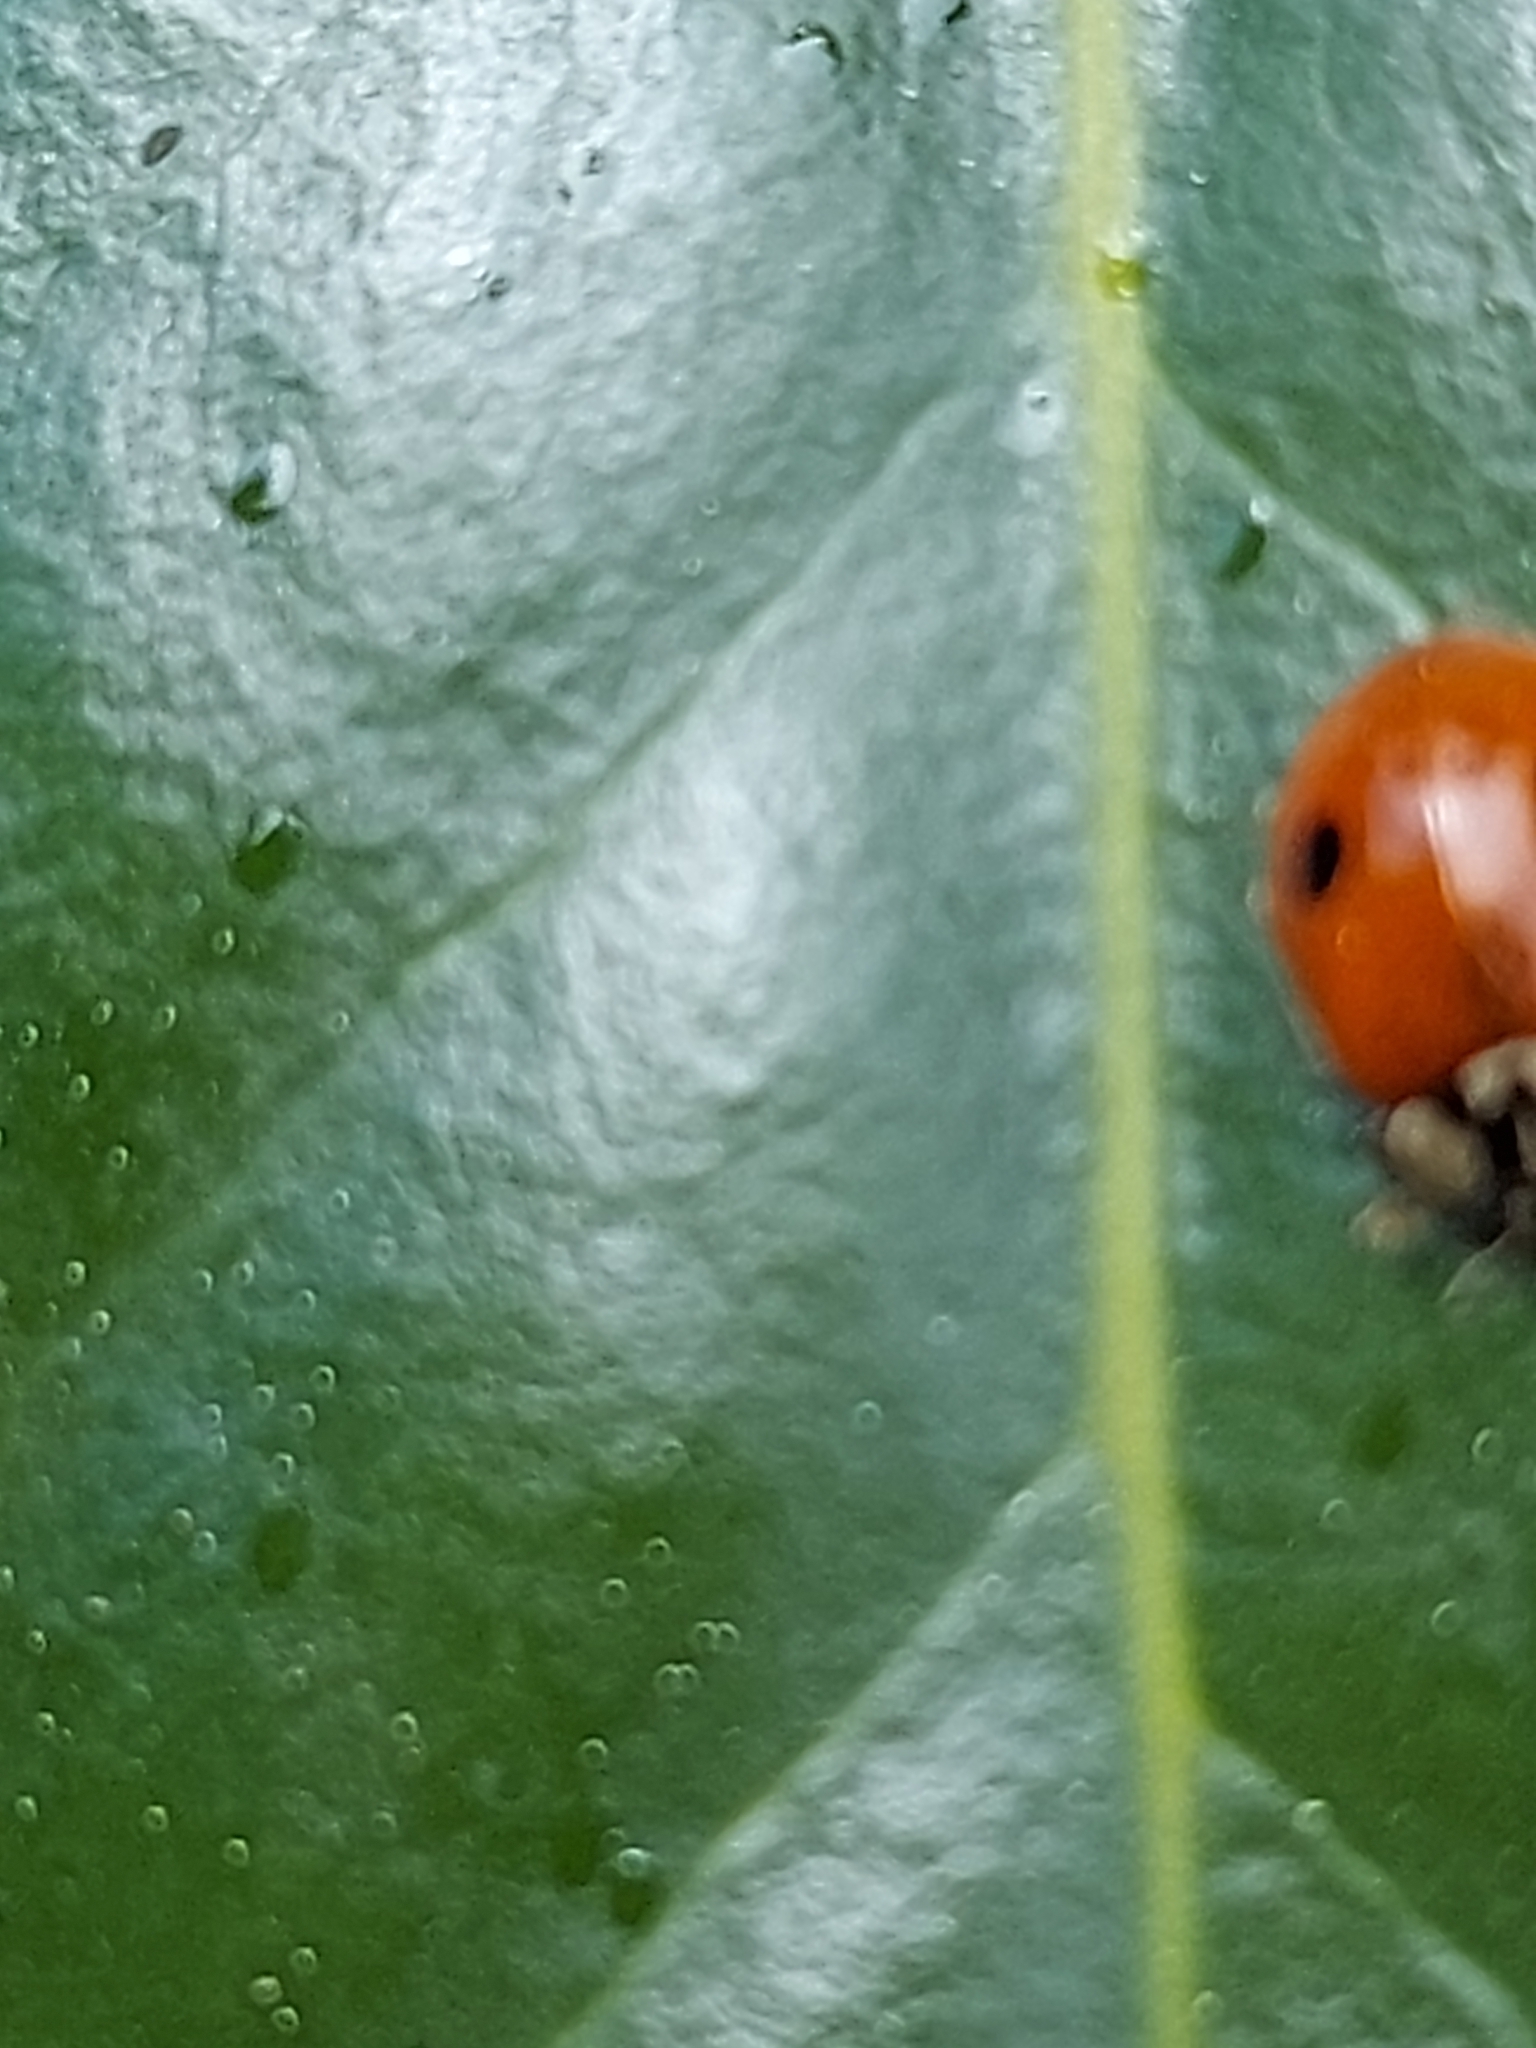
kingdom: Animalia
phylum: Arthropoda
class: Insecta
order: Coleoptera
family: Coccinellidae
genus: Adalia
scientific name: Adalia bipunctata
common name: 2-spot ladybird
